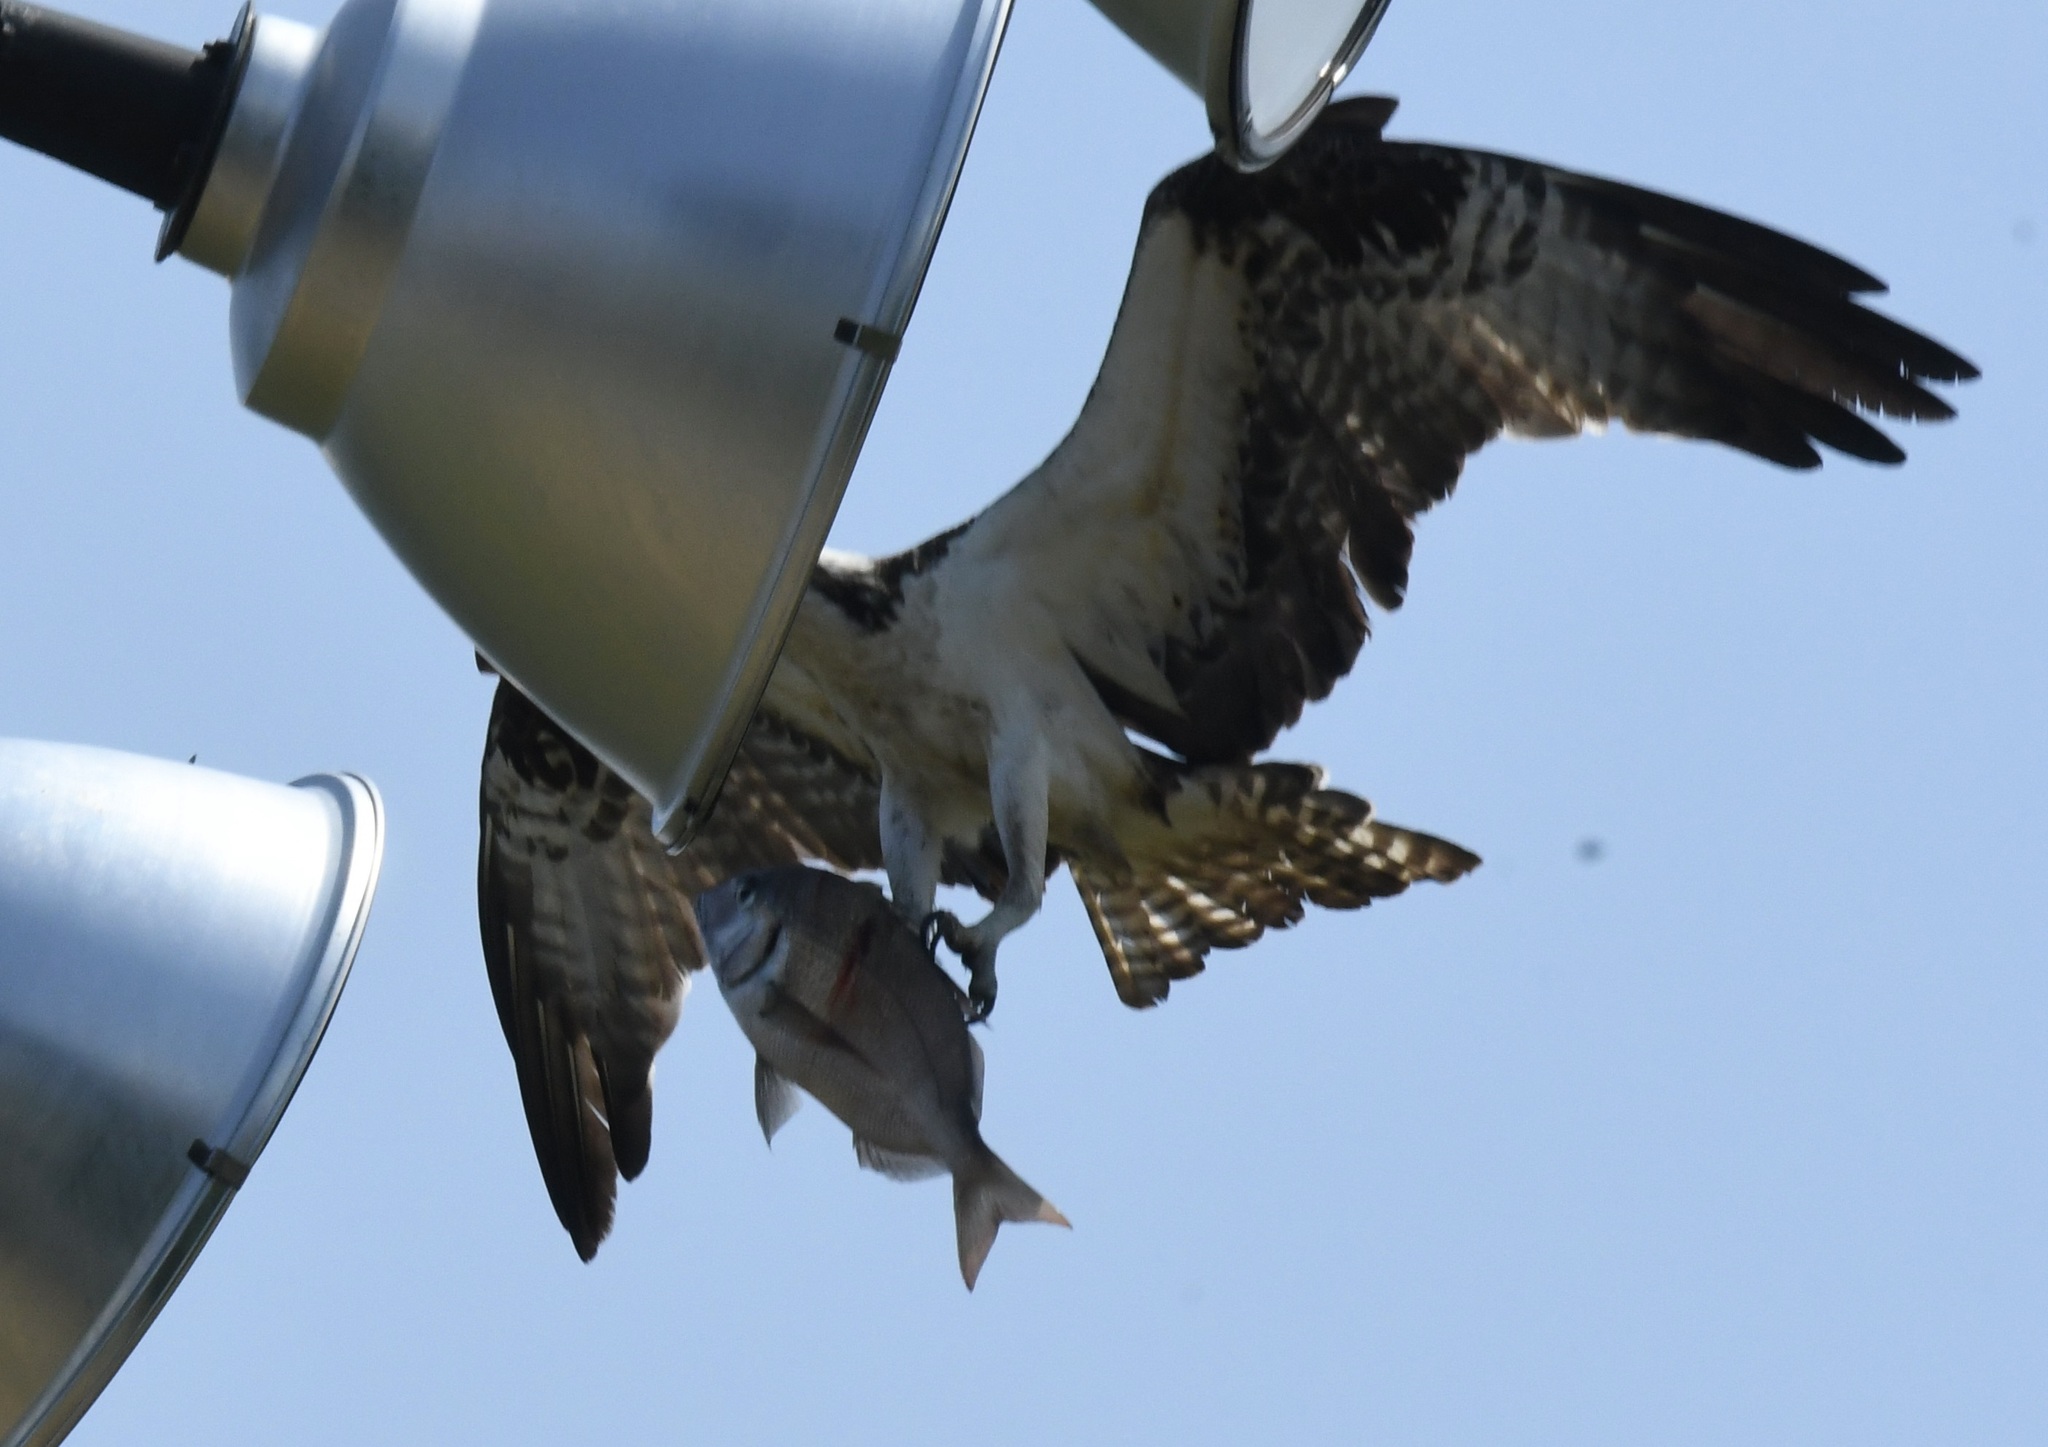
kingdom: Animalia
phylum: Chordata
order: Perciformes
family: Sparidae
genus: Stenotomus
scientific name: Stenotomus chrysops
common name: Scup
